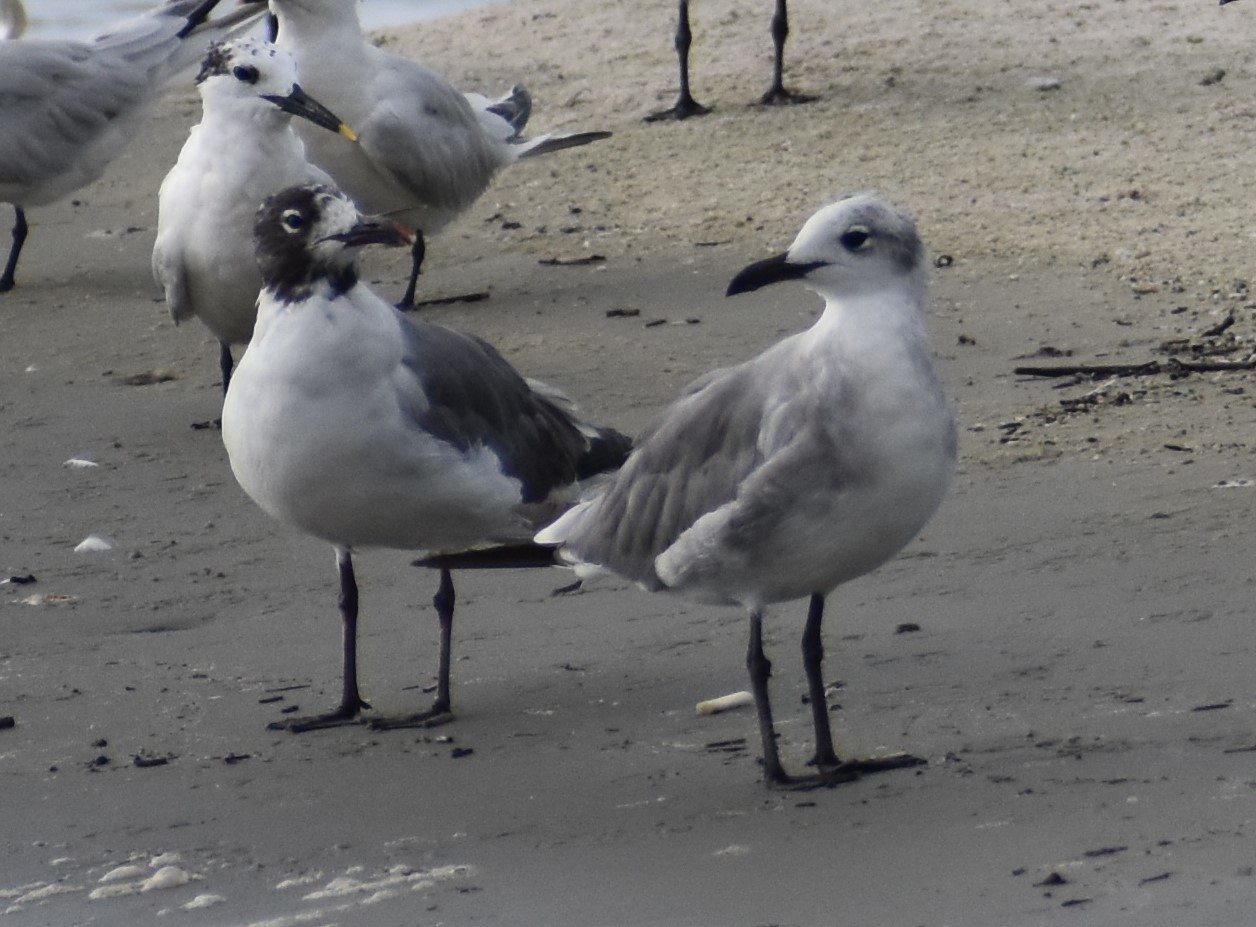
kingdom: Animalia
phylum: Chordata
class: Aves
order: Charadriiformes
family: Laridae
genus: Leucophaeus
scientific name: Leucophaeus atricilla
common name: Laughing gull
